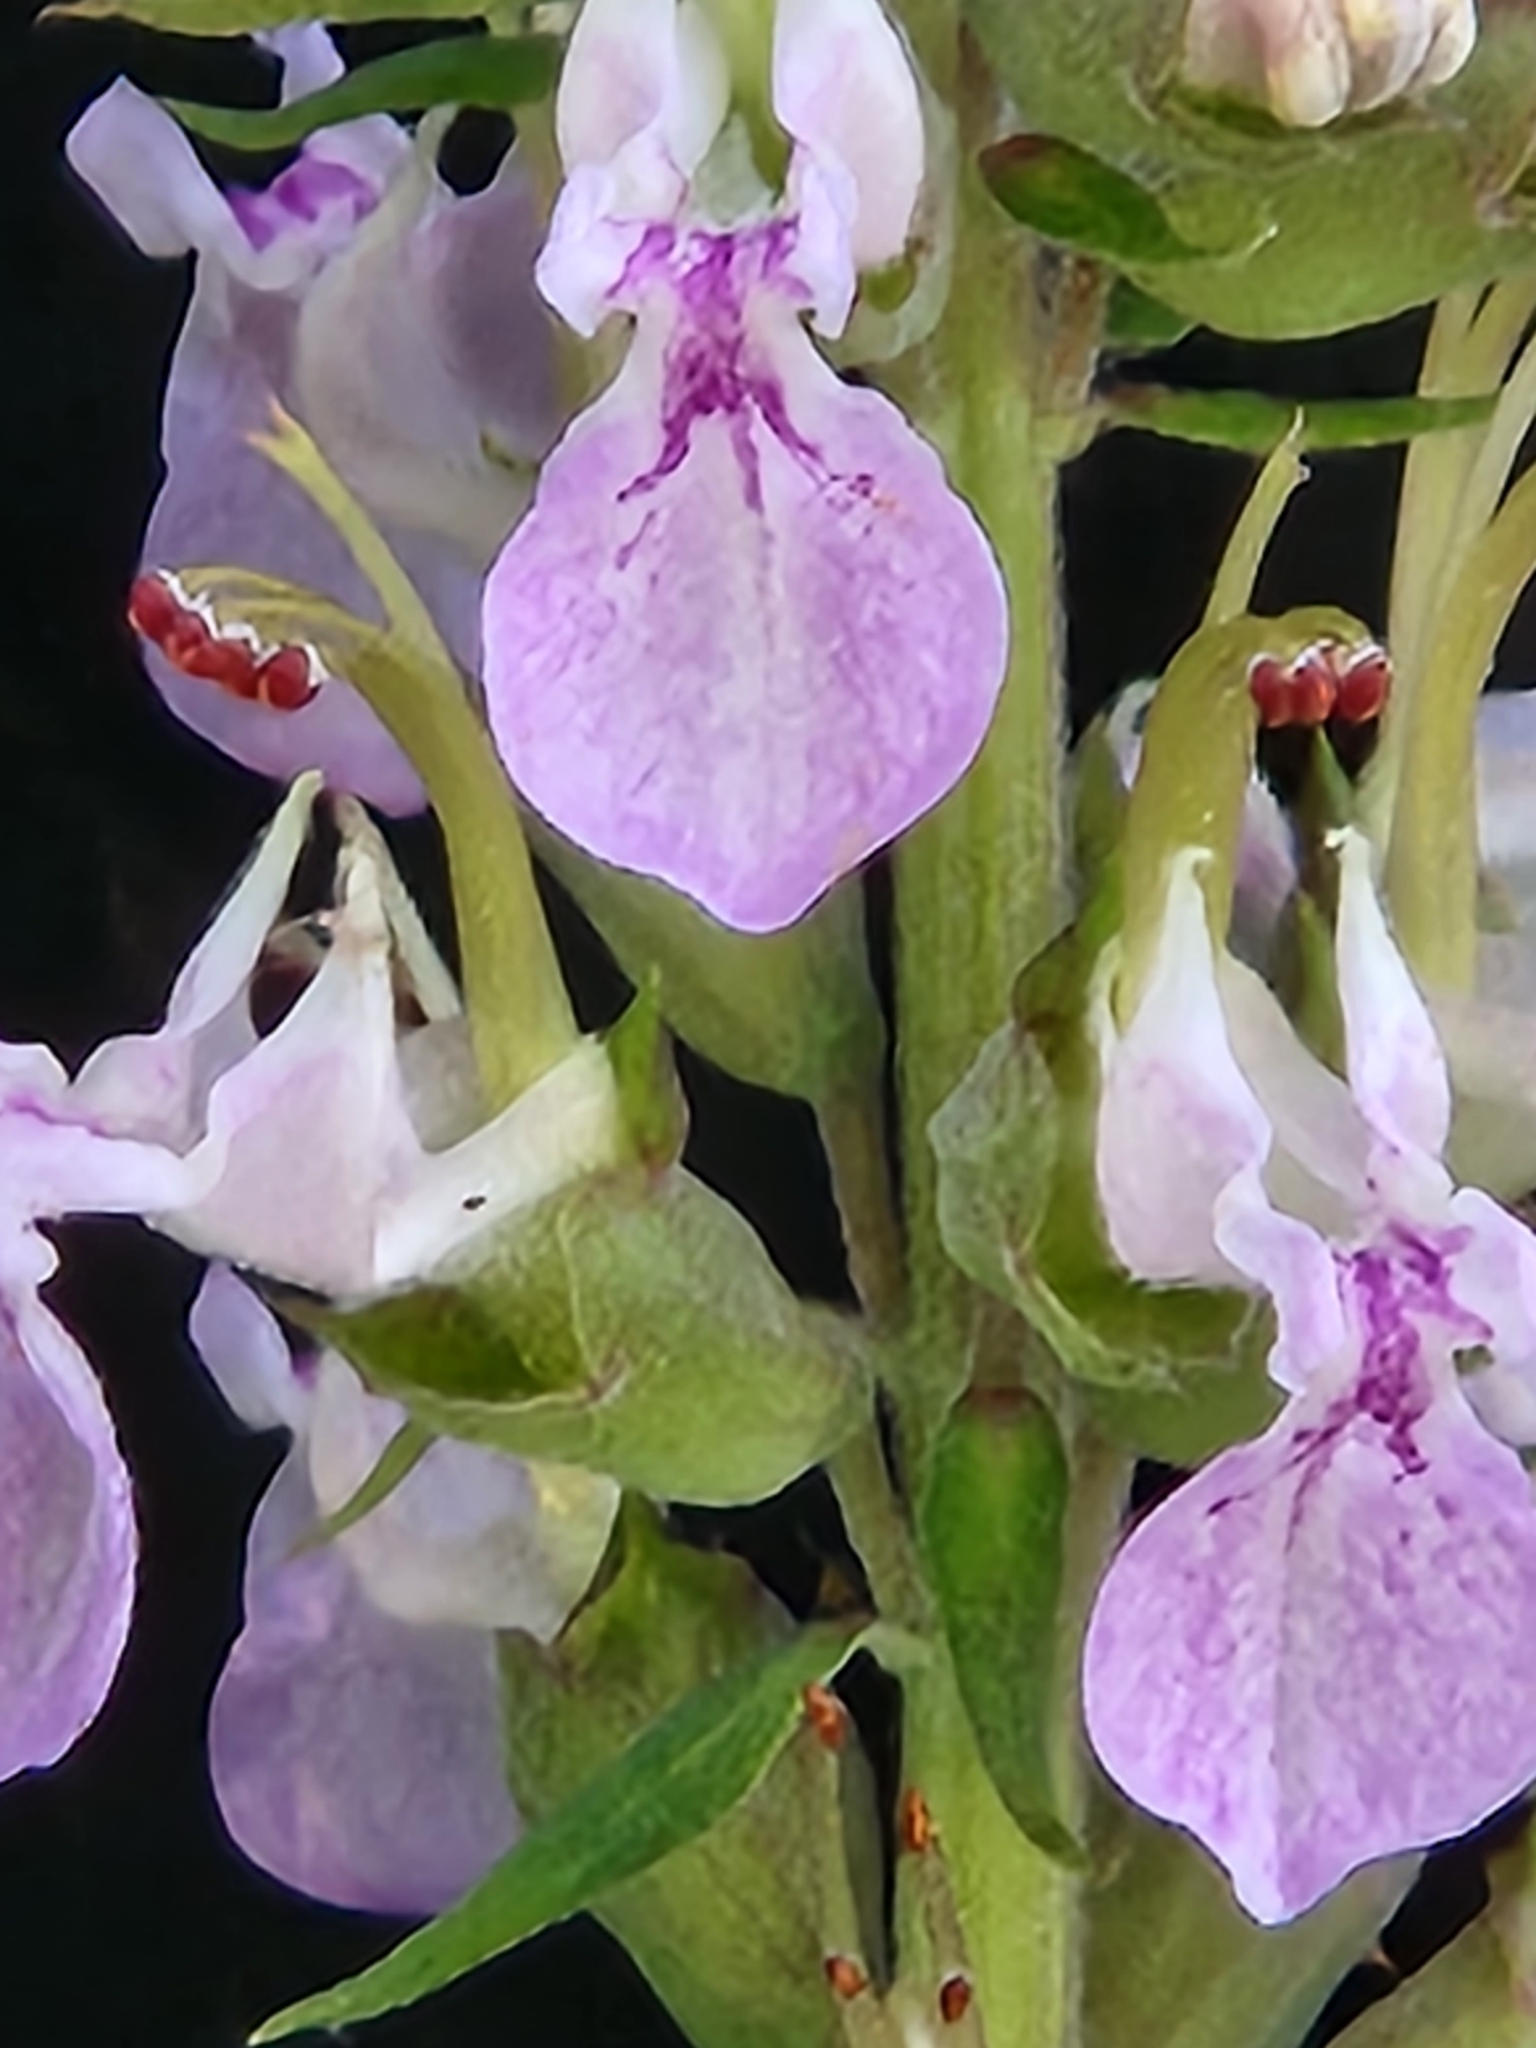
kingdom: Plantae
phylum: Tracheophyta
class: Magnoliopsida
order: Lamiales
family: Lamiaceae
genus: Teucrium
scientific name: Teucrium canadense
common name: American germander
